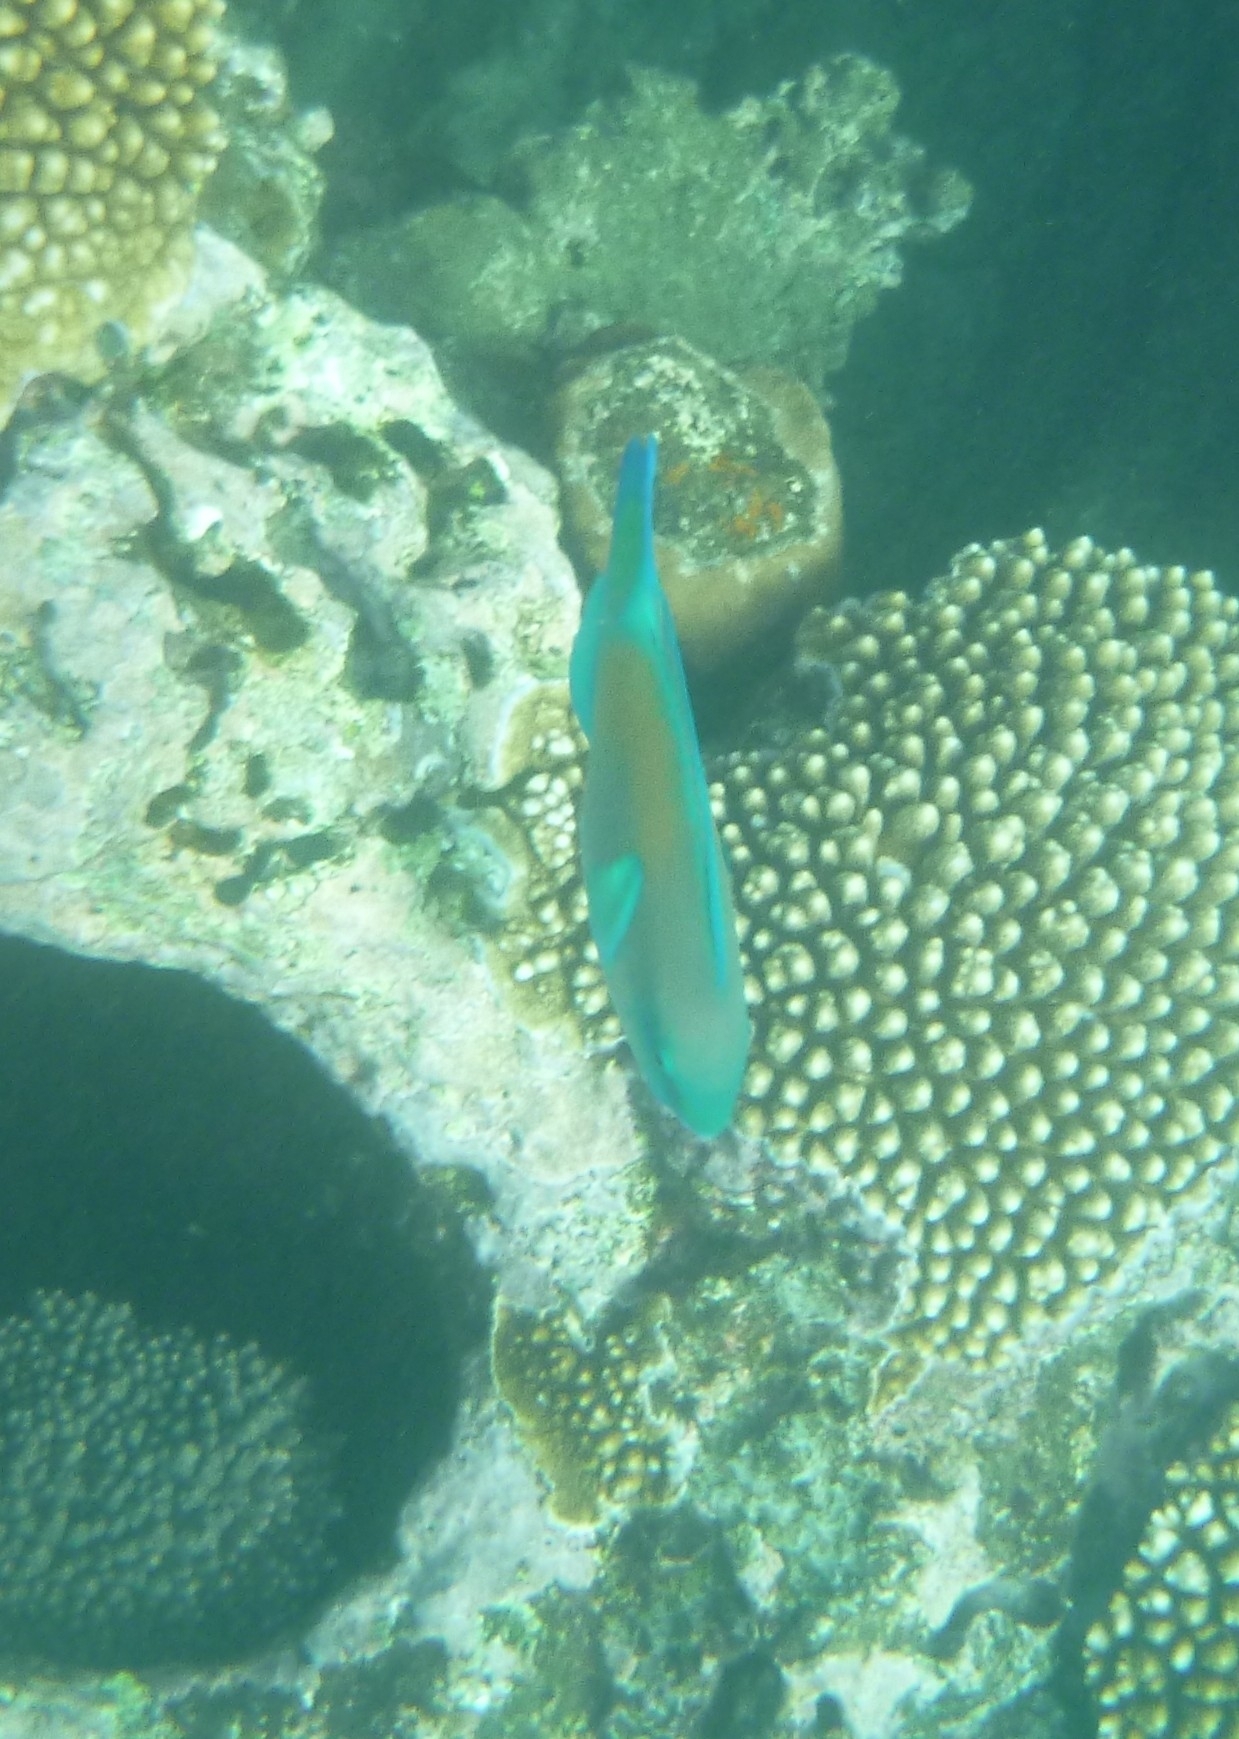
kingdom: Animalia
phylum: Chordata
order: Perciformes
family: Scaridae
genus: Chlorurus
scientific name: Chlorurus spilurus
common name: Bullethead parrotfish
